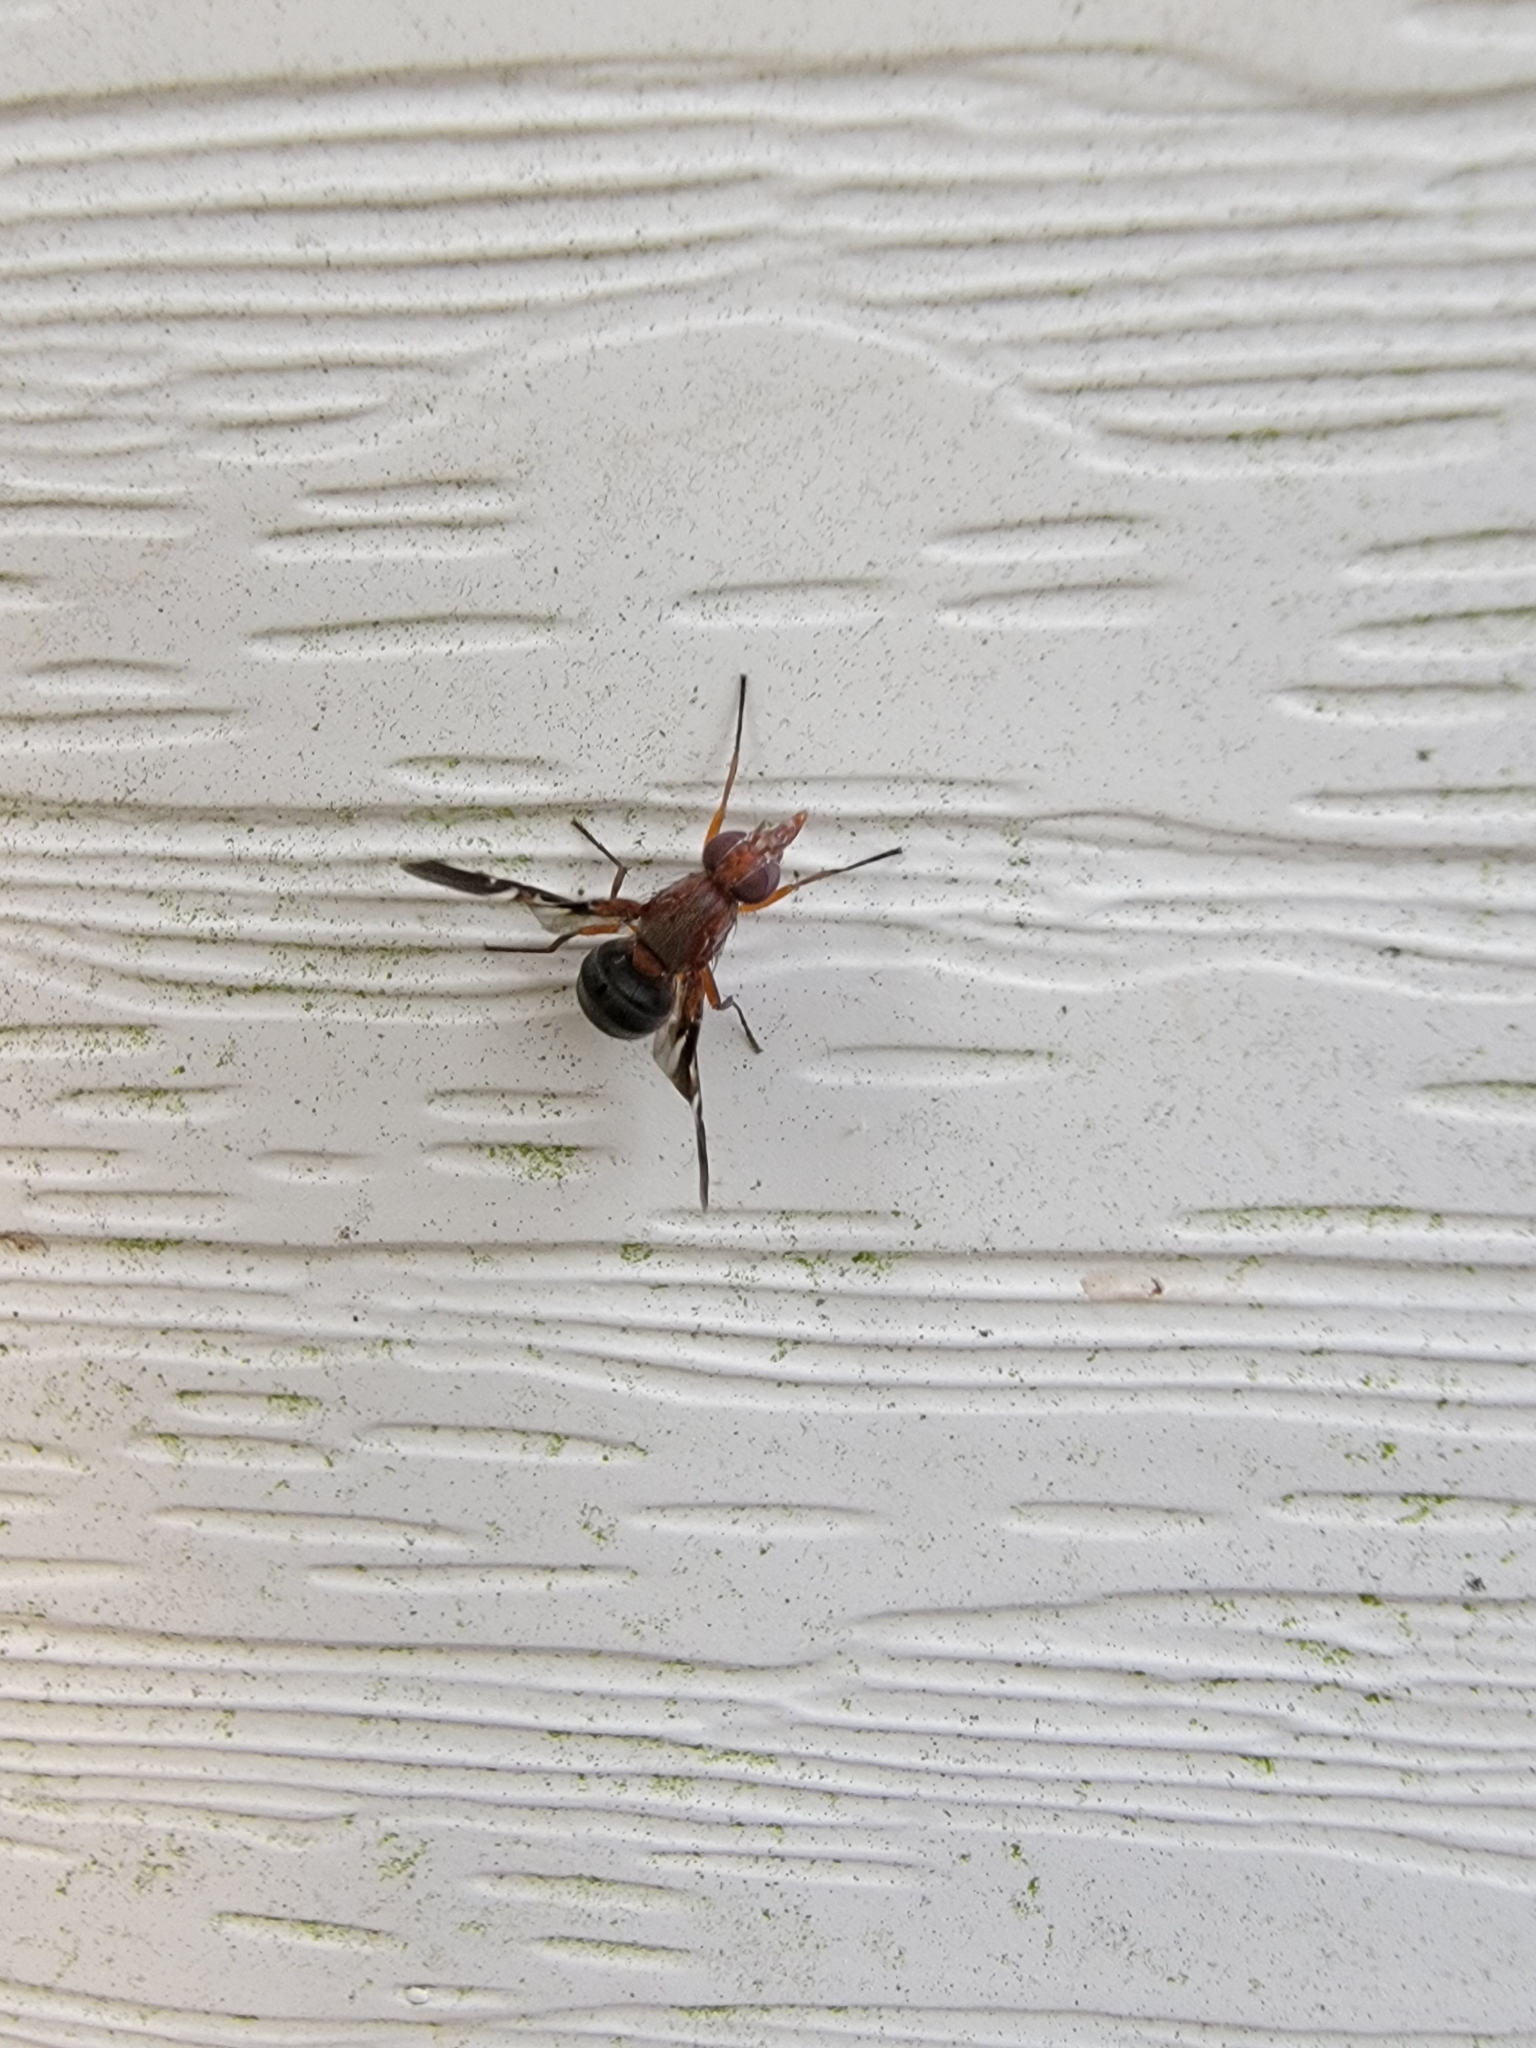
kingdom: Animalia
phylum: Arthropoda
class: Insecta
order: Diptera
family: Ulidiidae
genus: Delphinia
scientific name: Delphinia picta
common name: Common picture-winged fly
